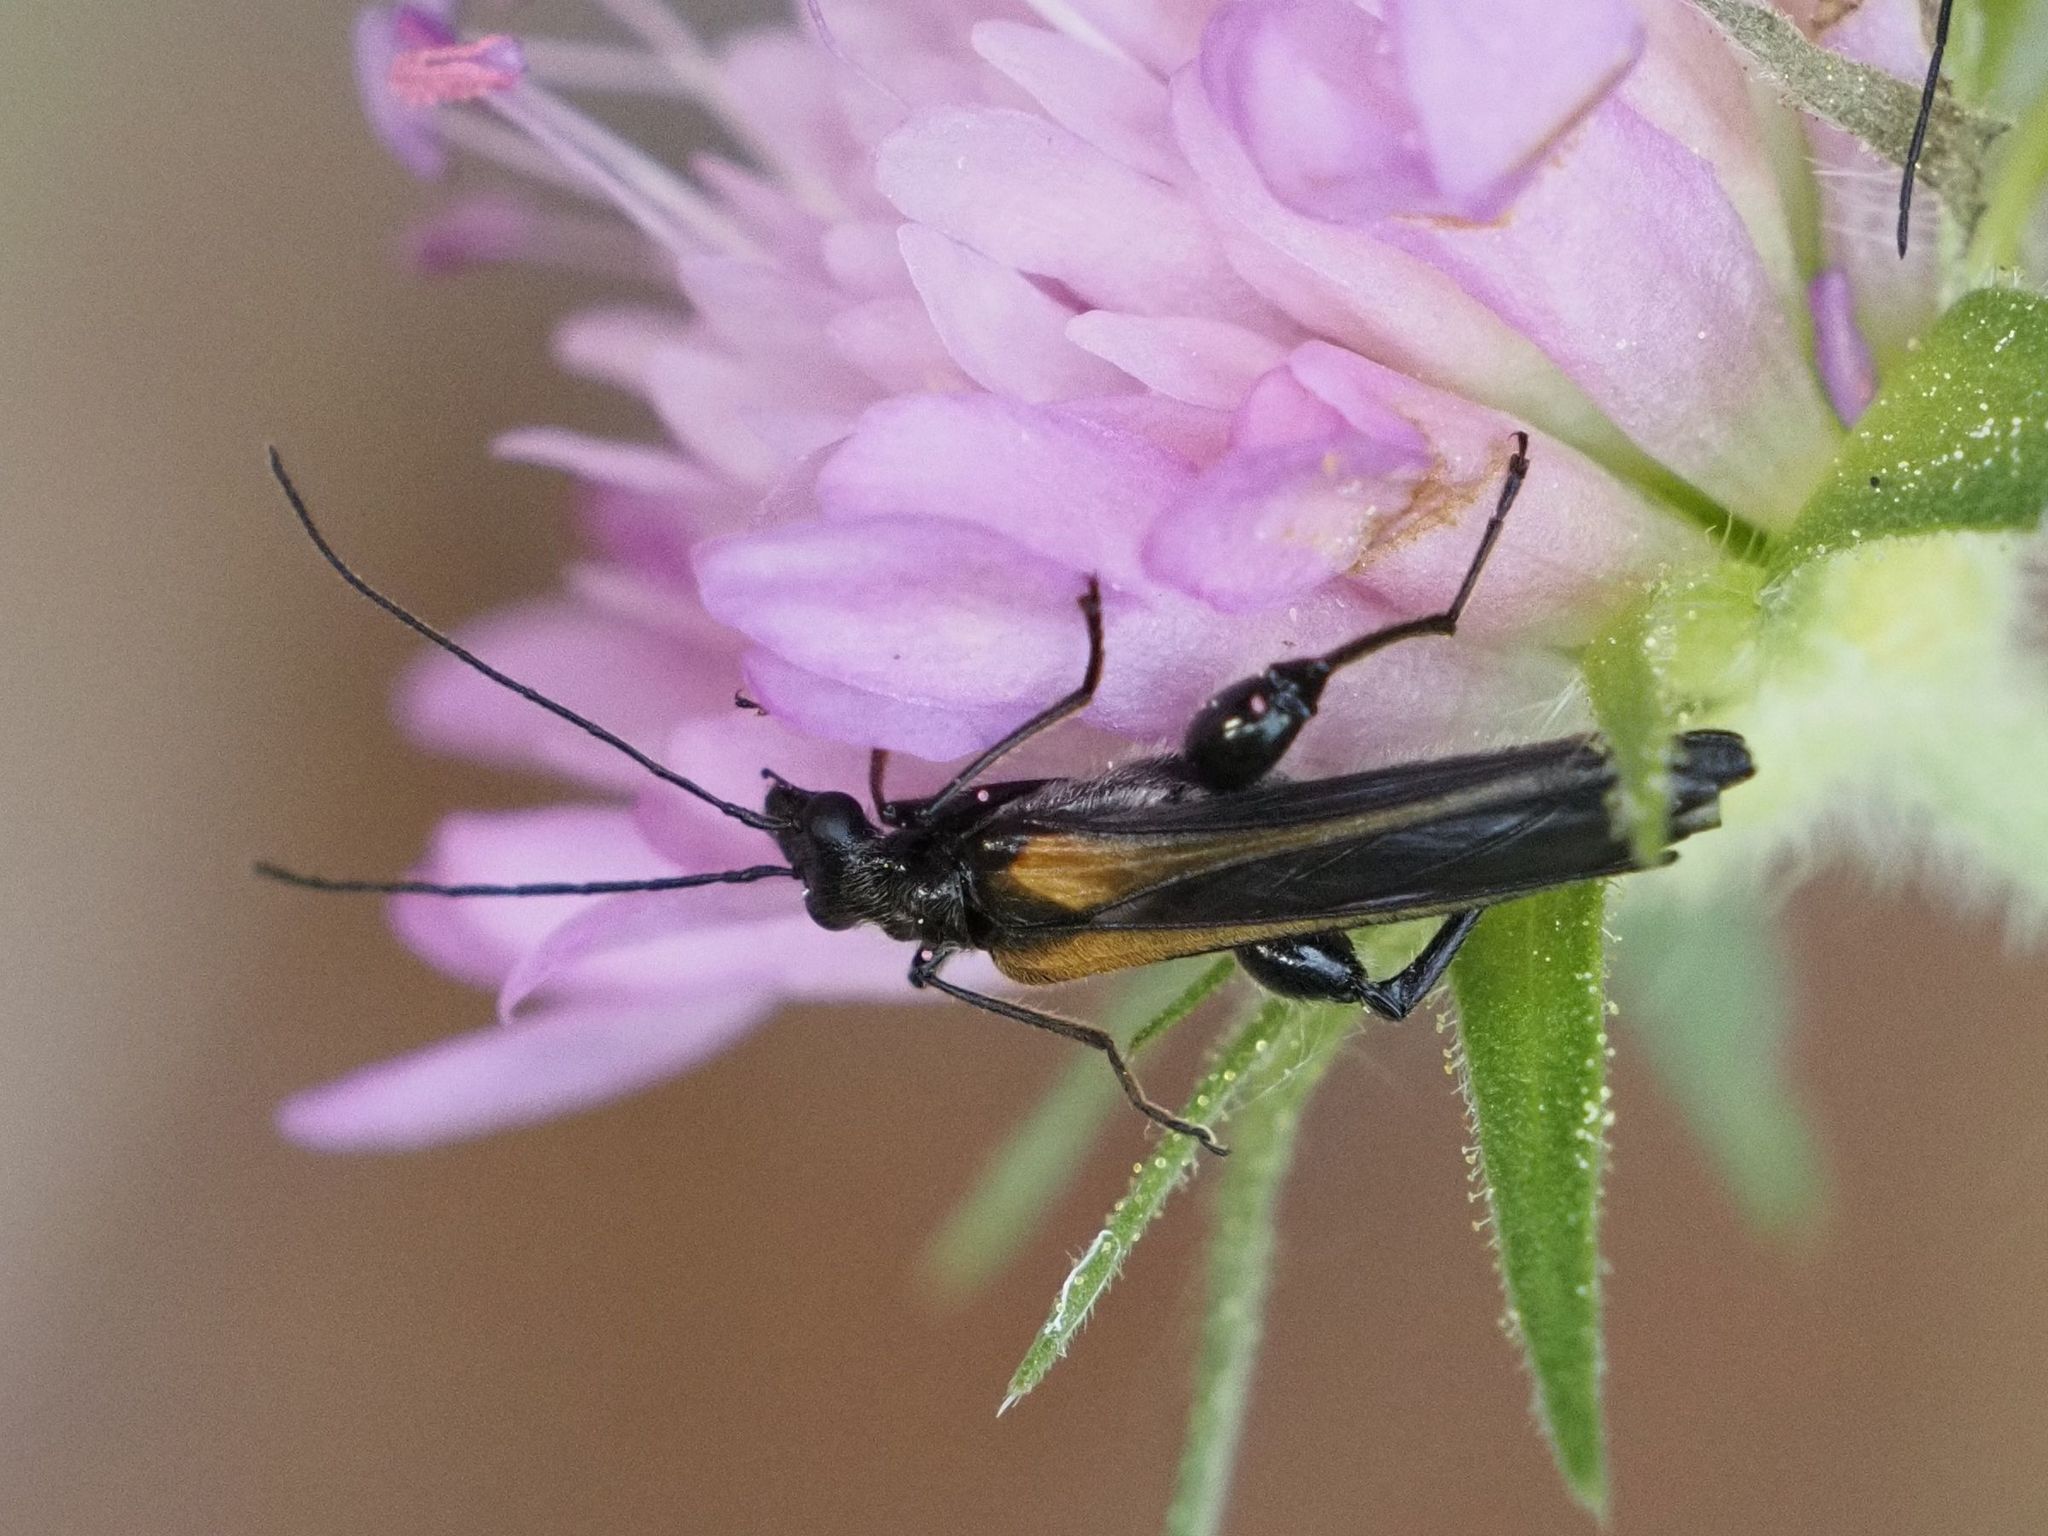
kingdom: Animalia
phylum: Arthropoda
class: Insecta
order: Coleoptera
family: Oedemeridae
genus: Oedemera
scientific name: Oedemera pthysica
